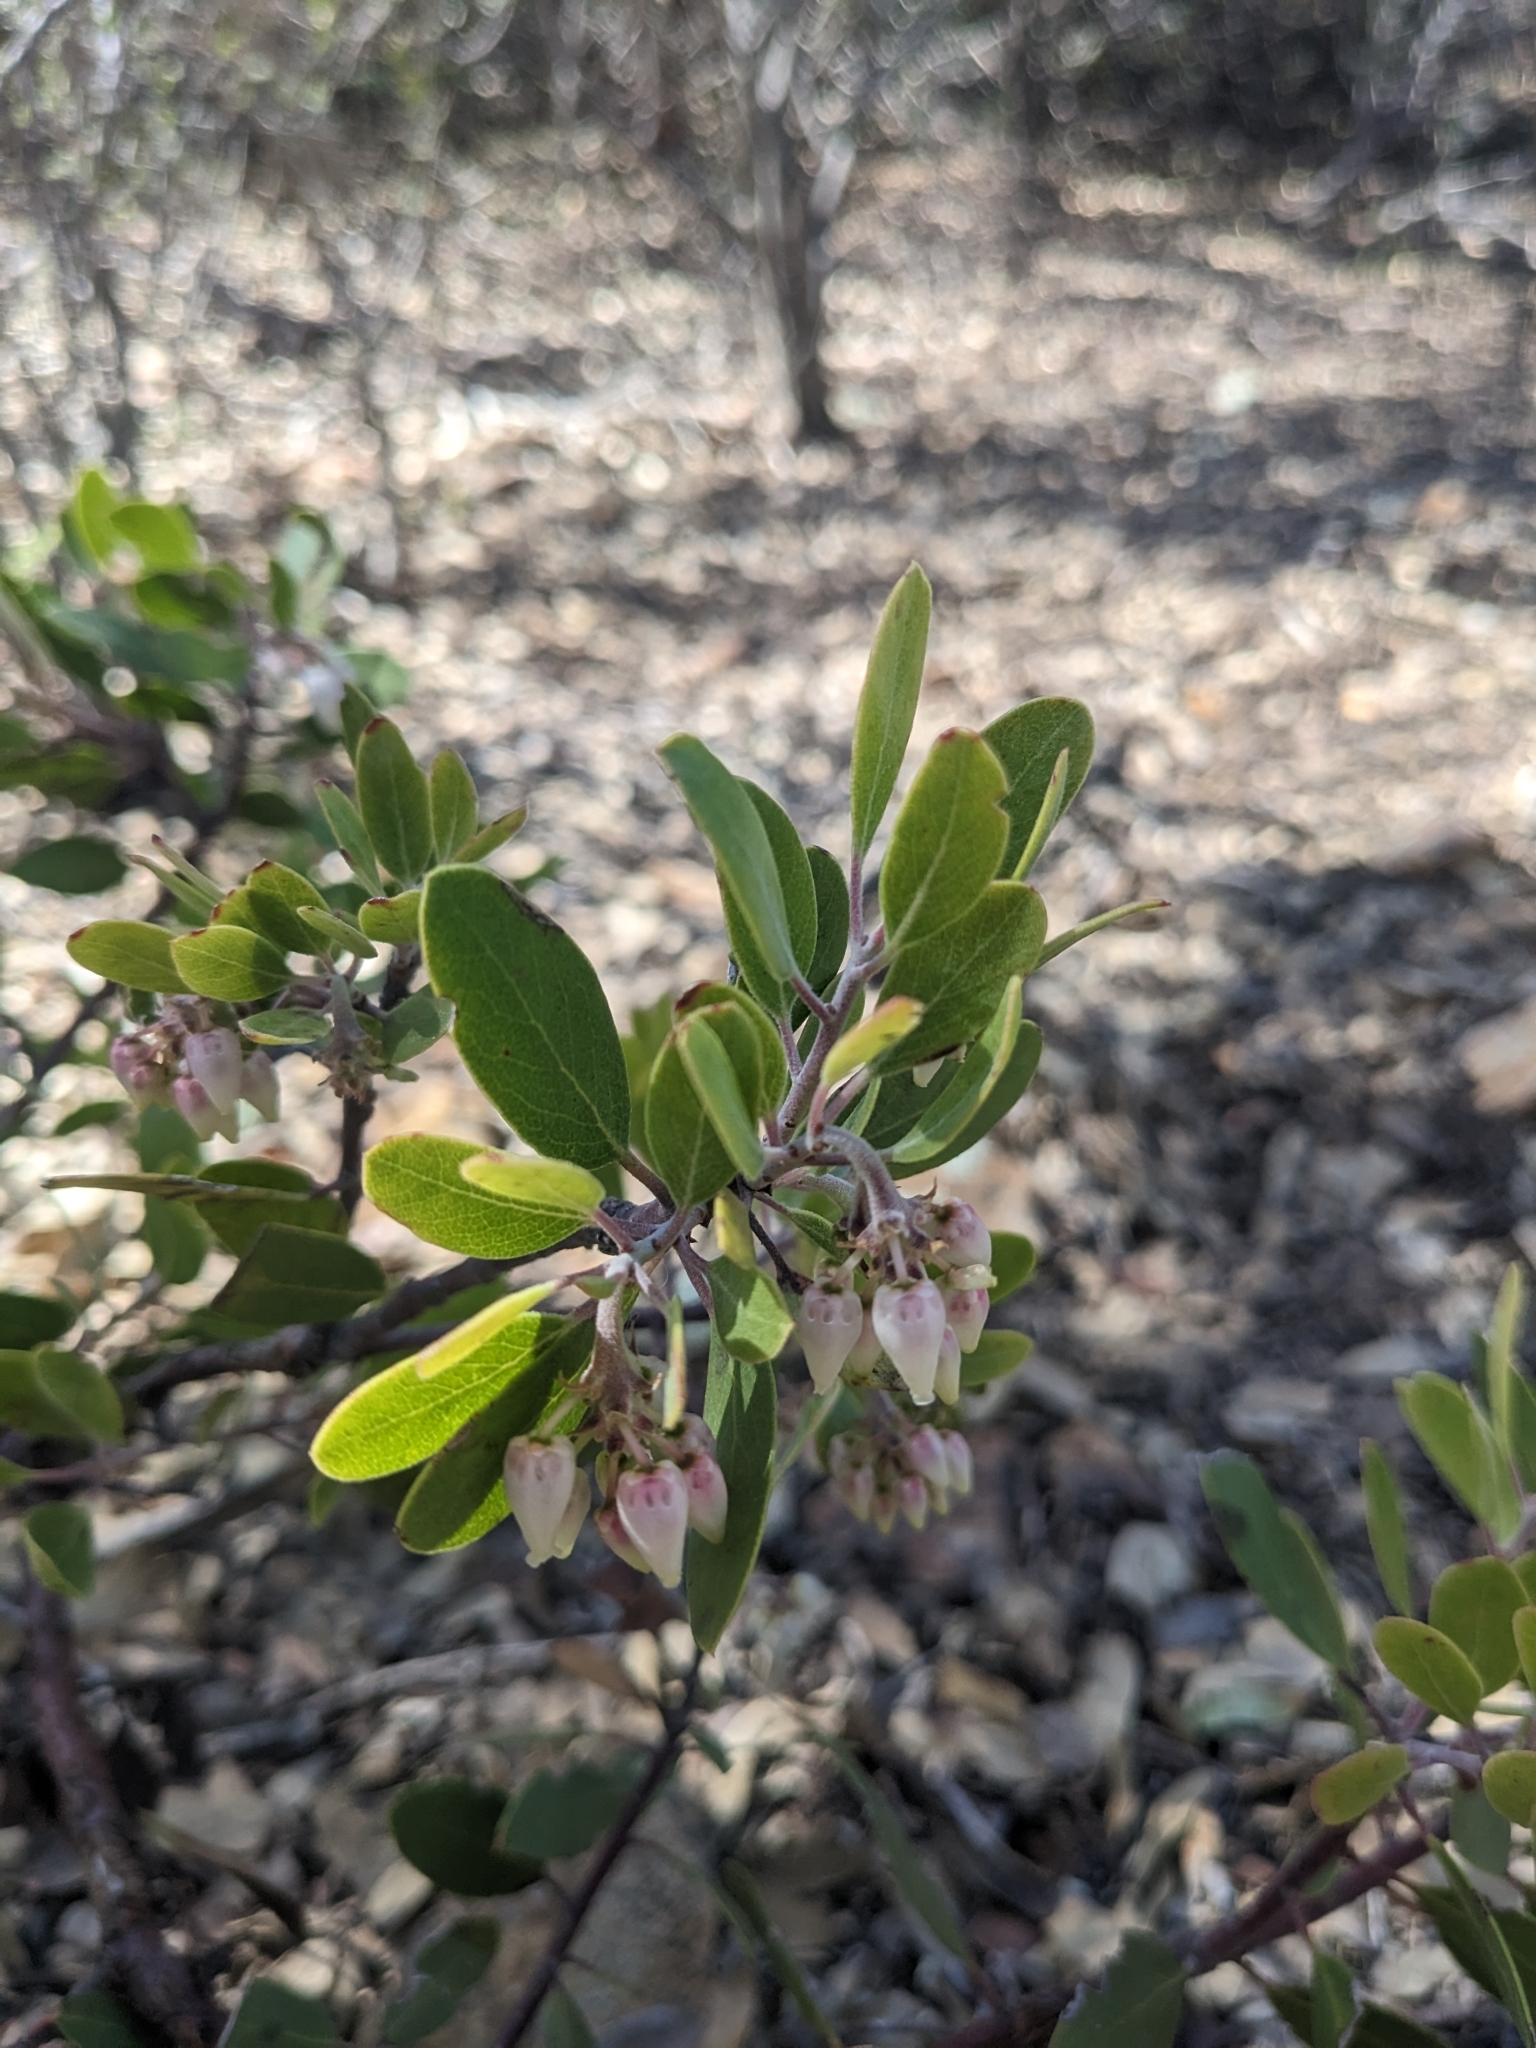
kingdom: Plantae
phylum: Tracheophyta
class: Magnoliopsida
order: Ericales
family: Ericaceae
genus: Arctostaphylos
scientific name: Arctostaphylos pungens
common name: Mexican manzanita
